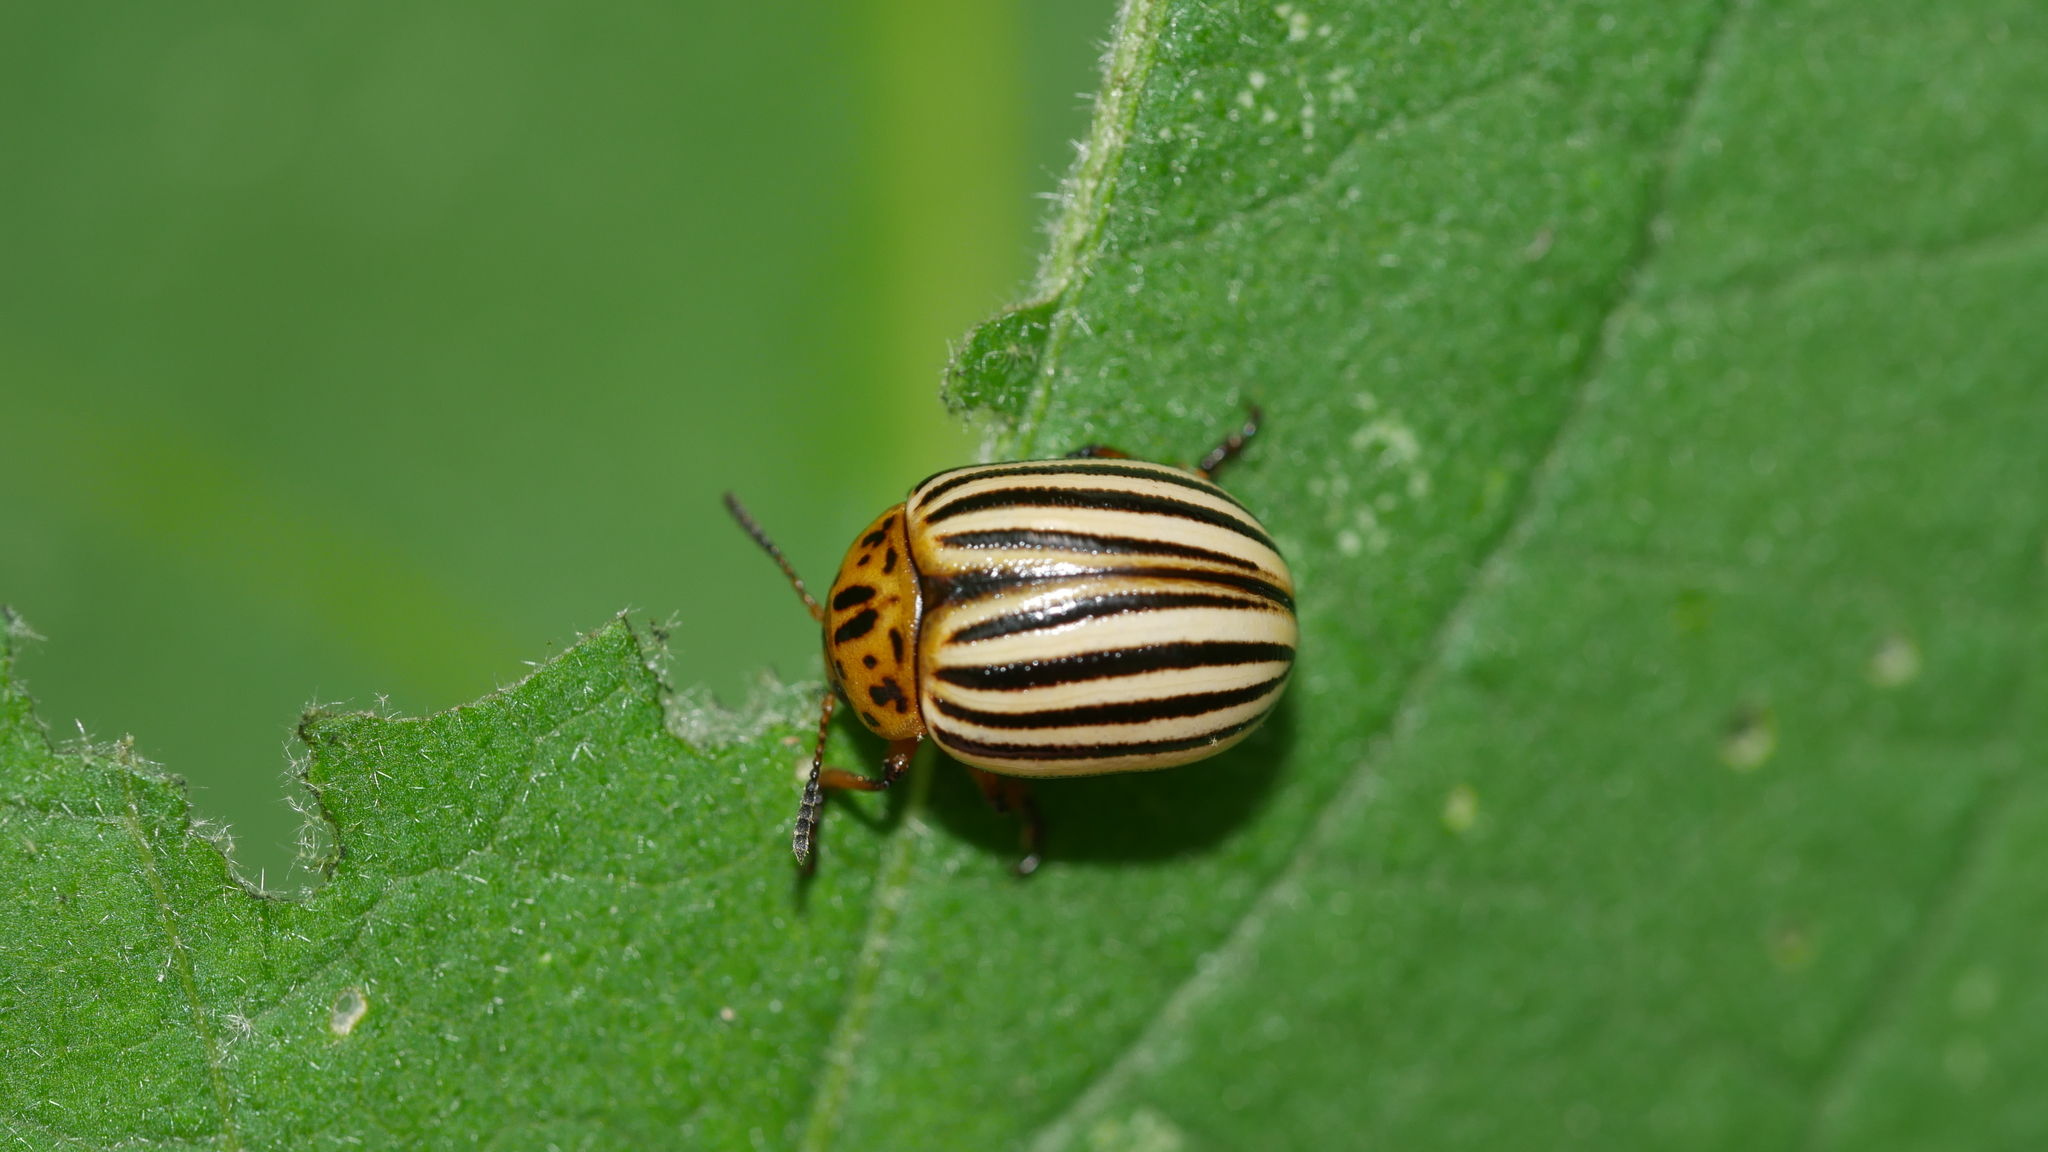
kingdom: Animalia
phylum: Arthropoda
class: Insecta
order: Coleoptera
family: Chrysomelidae
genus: Leptinotarsa
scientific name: Leptinotarsa decemlineata
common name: Colorado potato beetle
